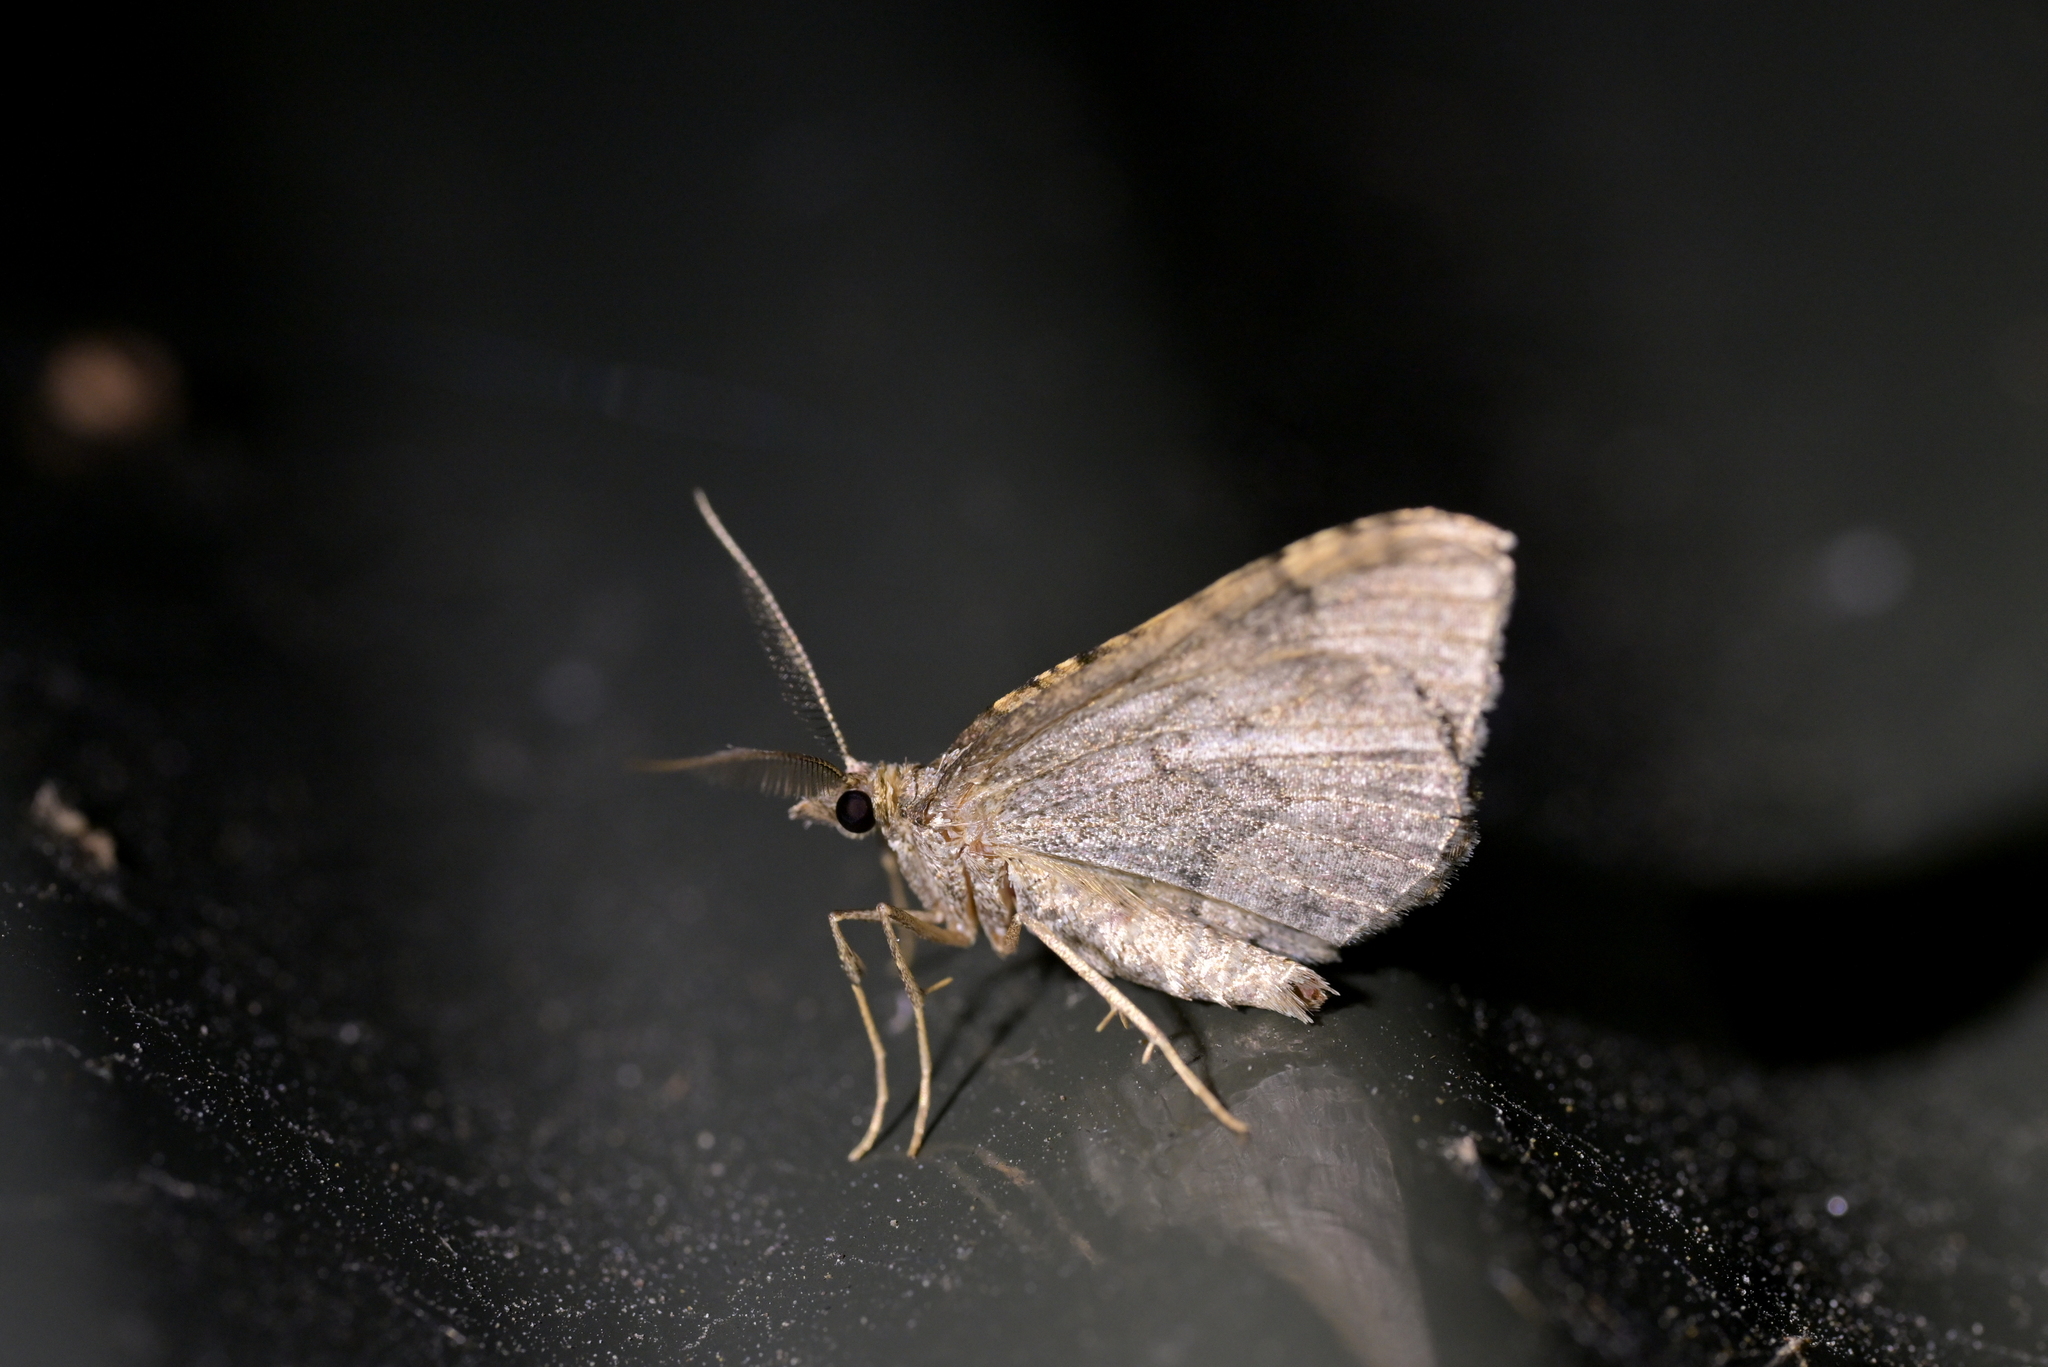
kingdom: Animalia
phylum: Arthropoda
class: Insecta
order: Lepidoptera
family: Geometridae
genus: Epyaxa
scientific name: Epyaxa rosearia
